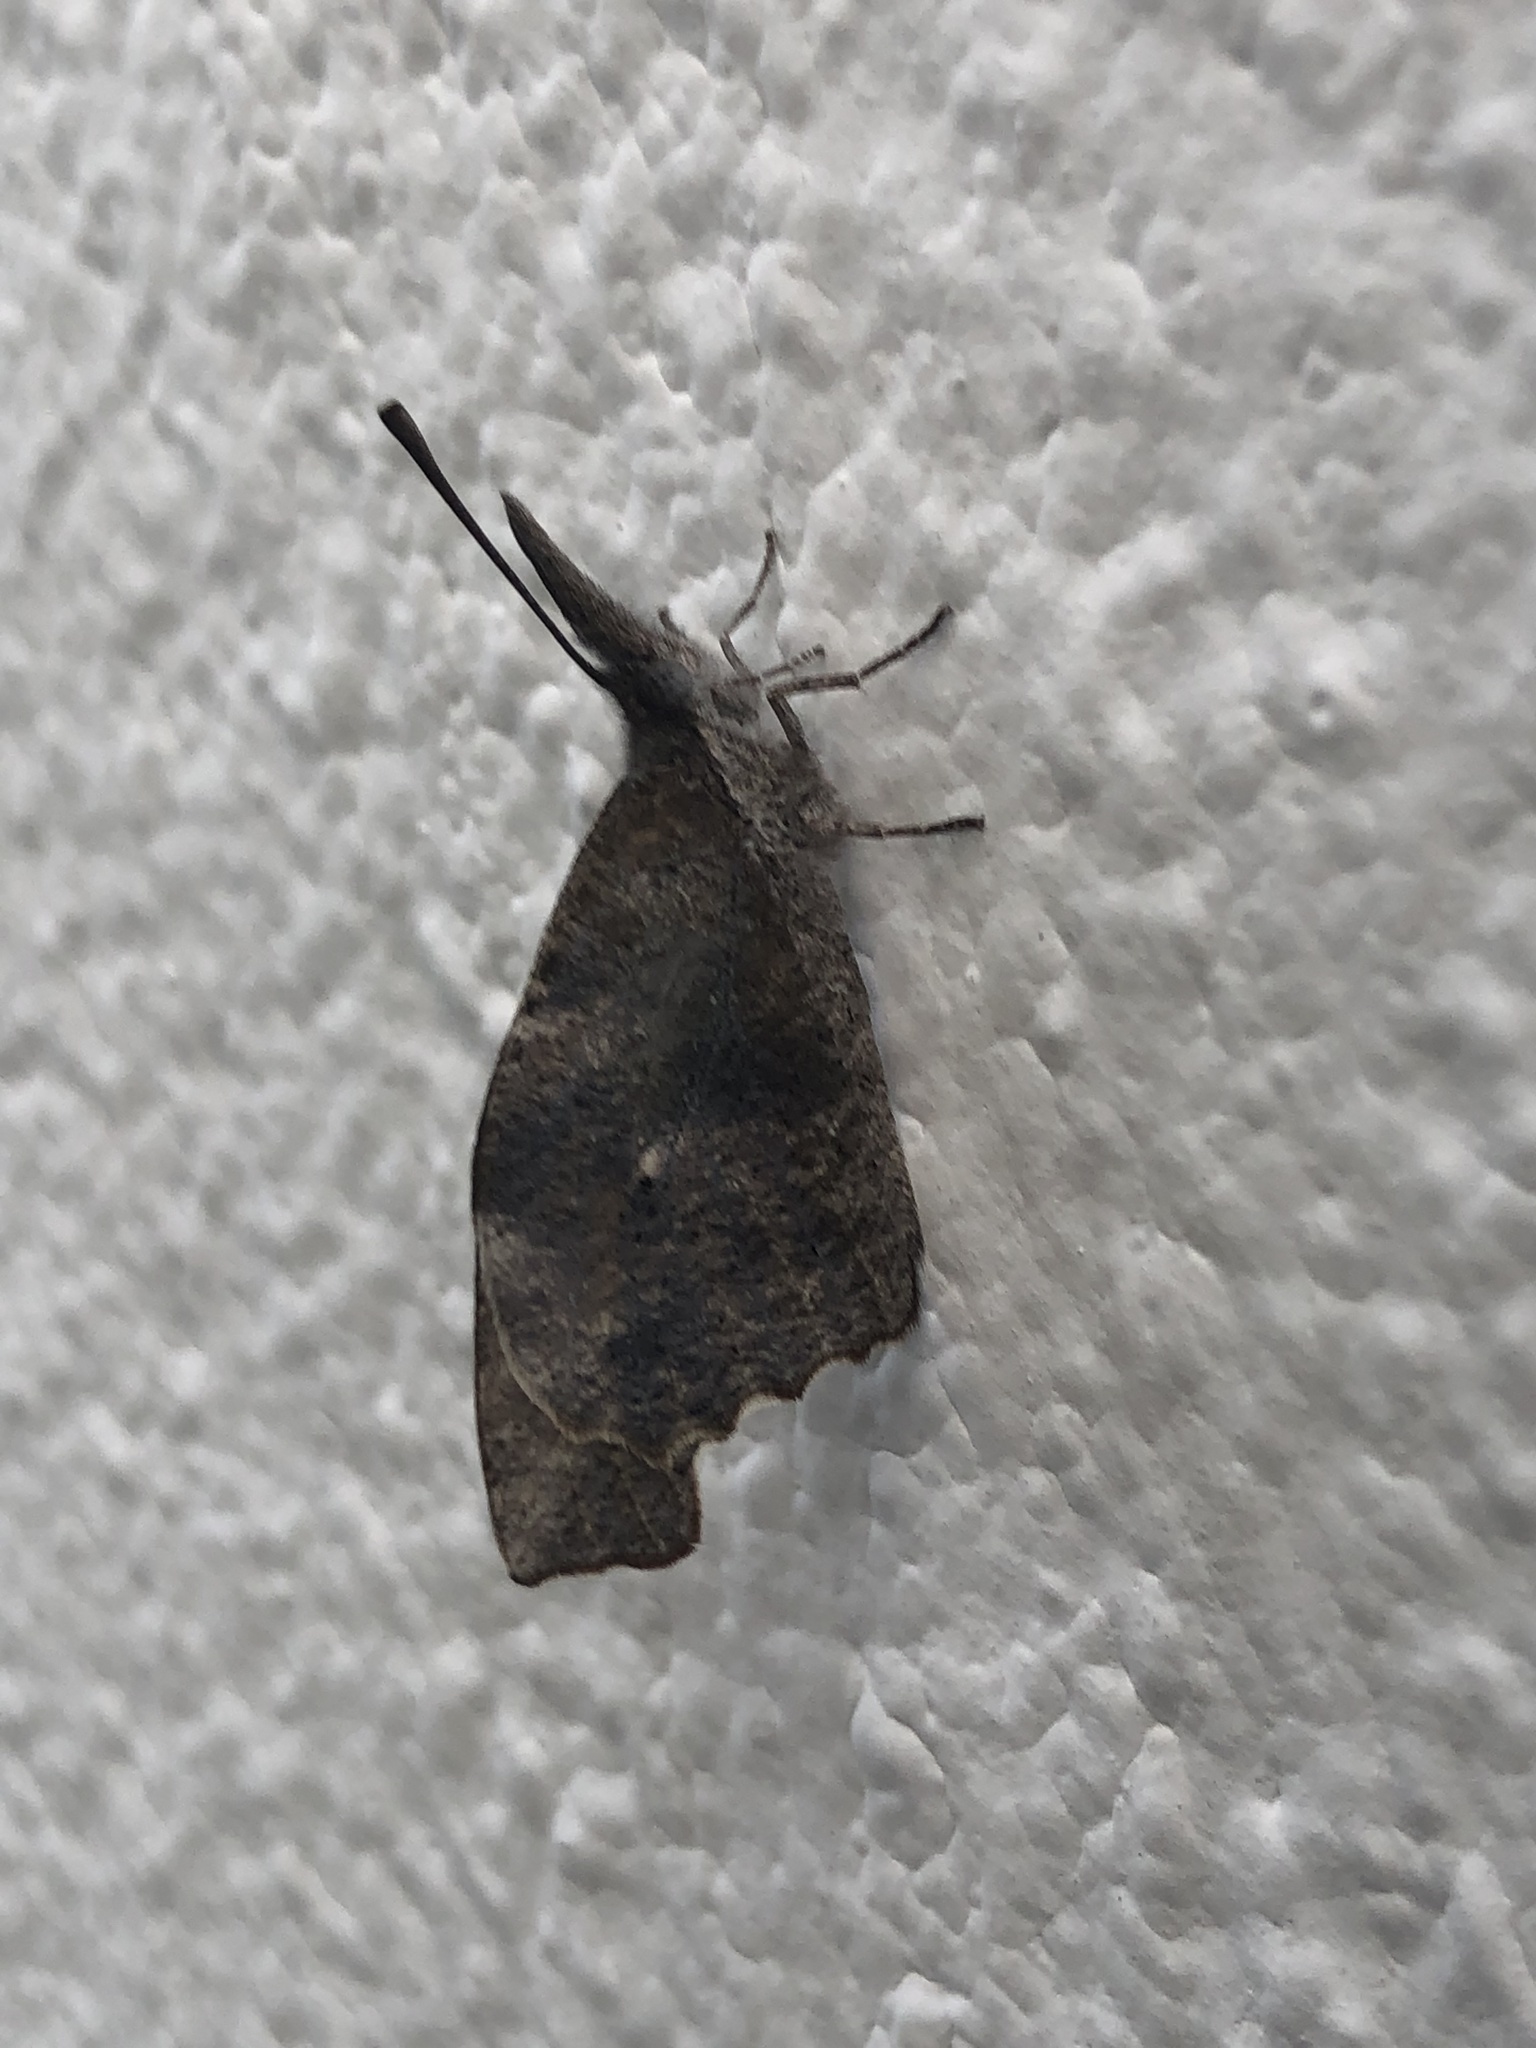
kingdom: Animalia
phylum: Arthropoda
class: Insecta
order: Lepidoptera
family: Nymphalidae
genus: Libytheana
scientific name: Libytheana carinenta
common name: American snout
